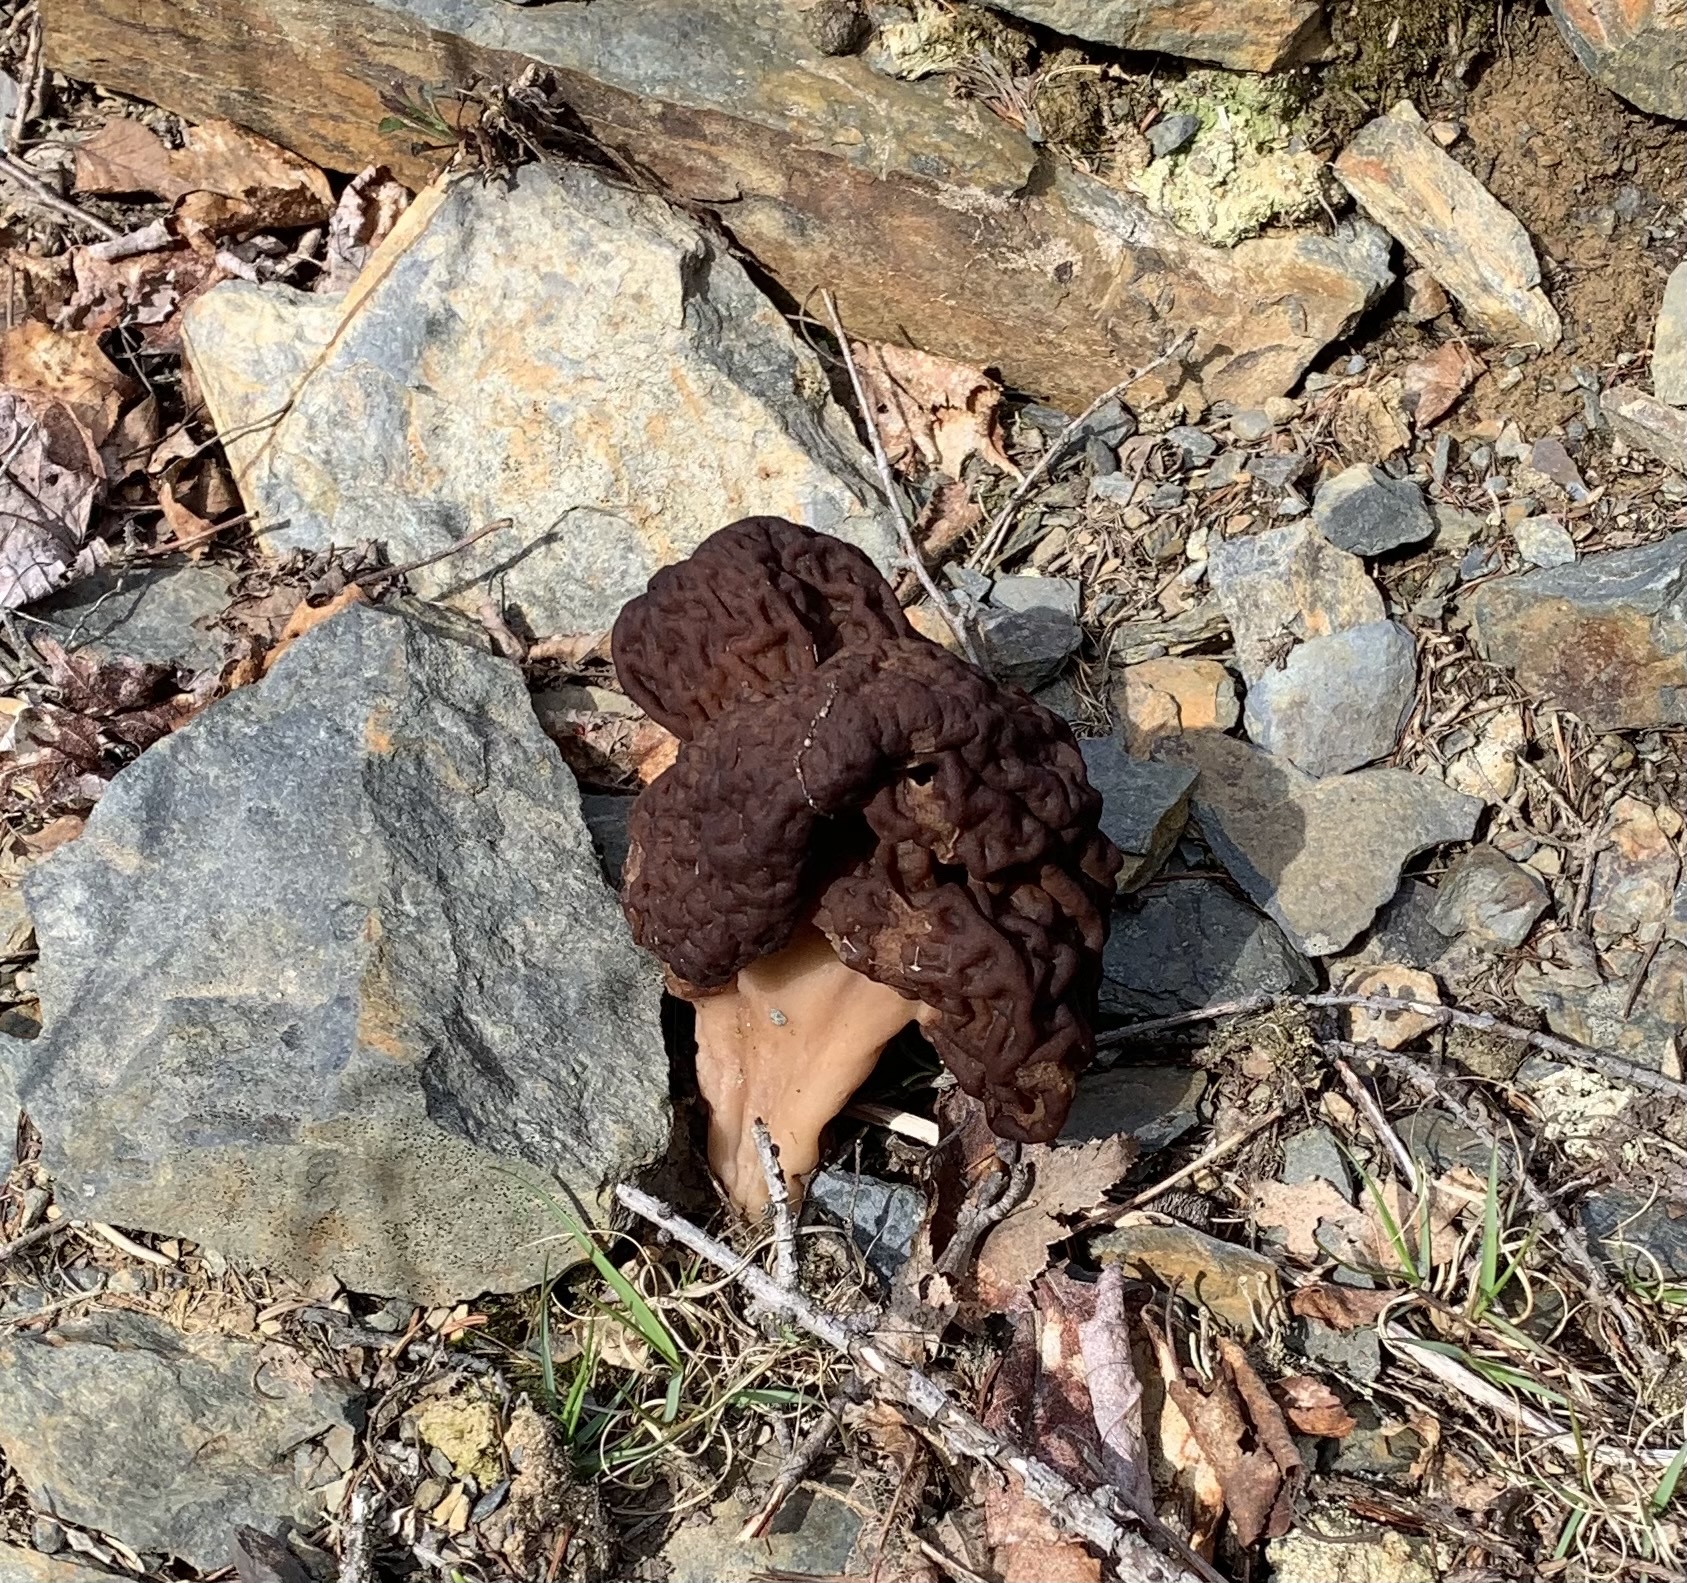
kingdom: Fungi
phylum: Ascomycota
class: Pezizomycetes
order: Pezizales
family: Discinaceae
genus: Gyromitra
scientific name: Gyromitra esculenta
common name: False morel
